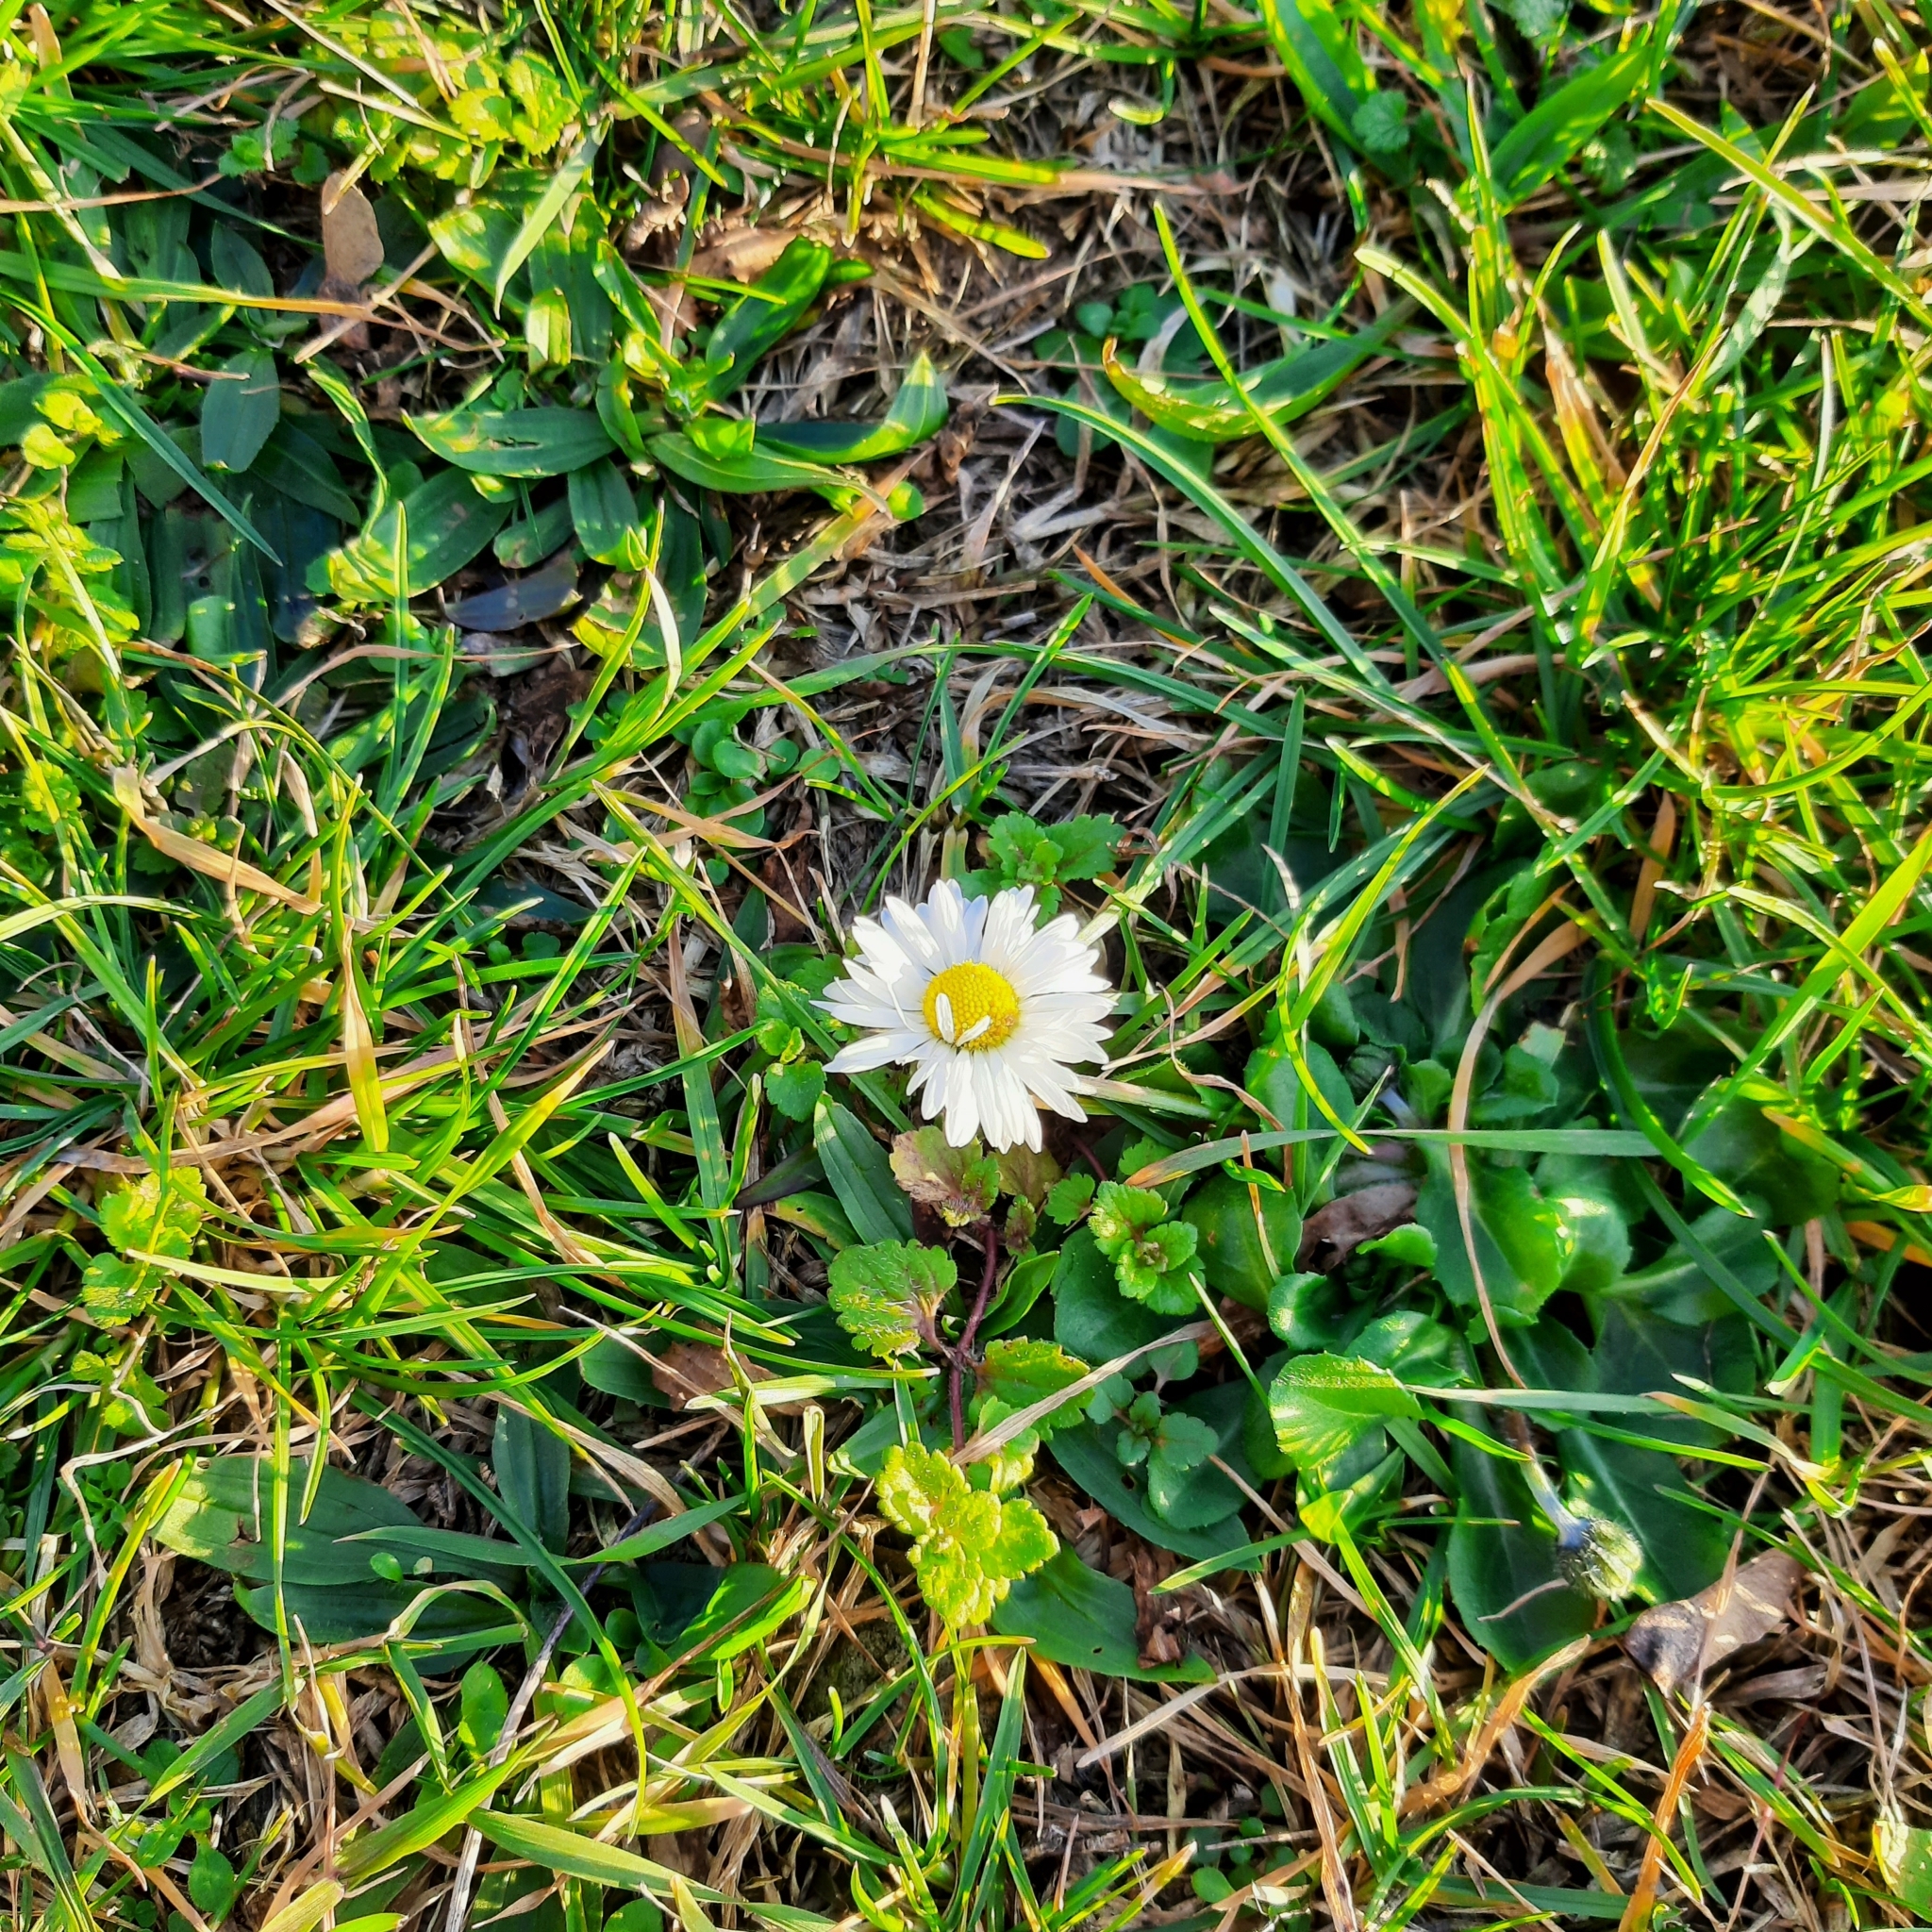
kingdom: Plantae
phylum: Tracheophyta
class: Magnoliopsida
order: Asterales
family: Asteraceae
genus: Bellis
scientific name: Bellis perennis
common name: Lawndaisy
